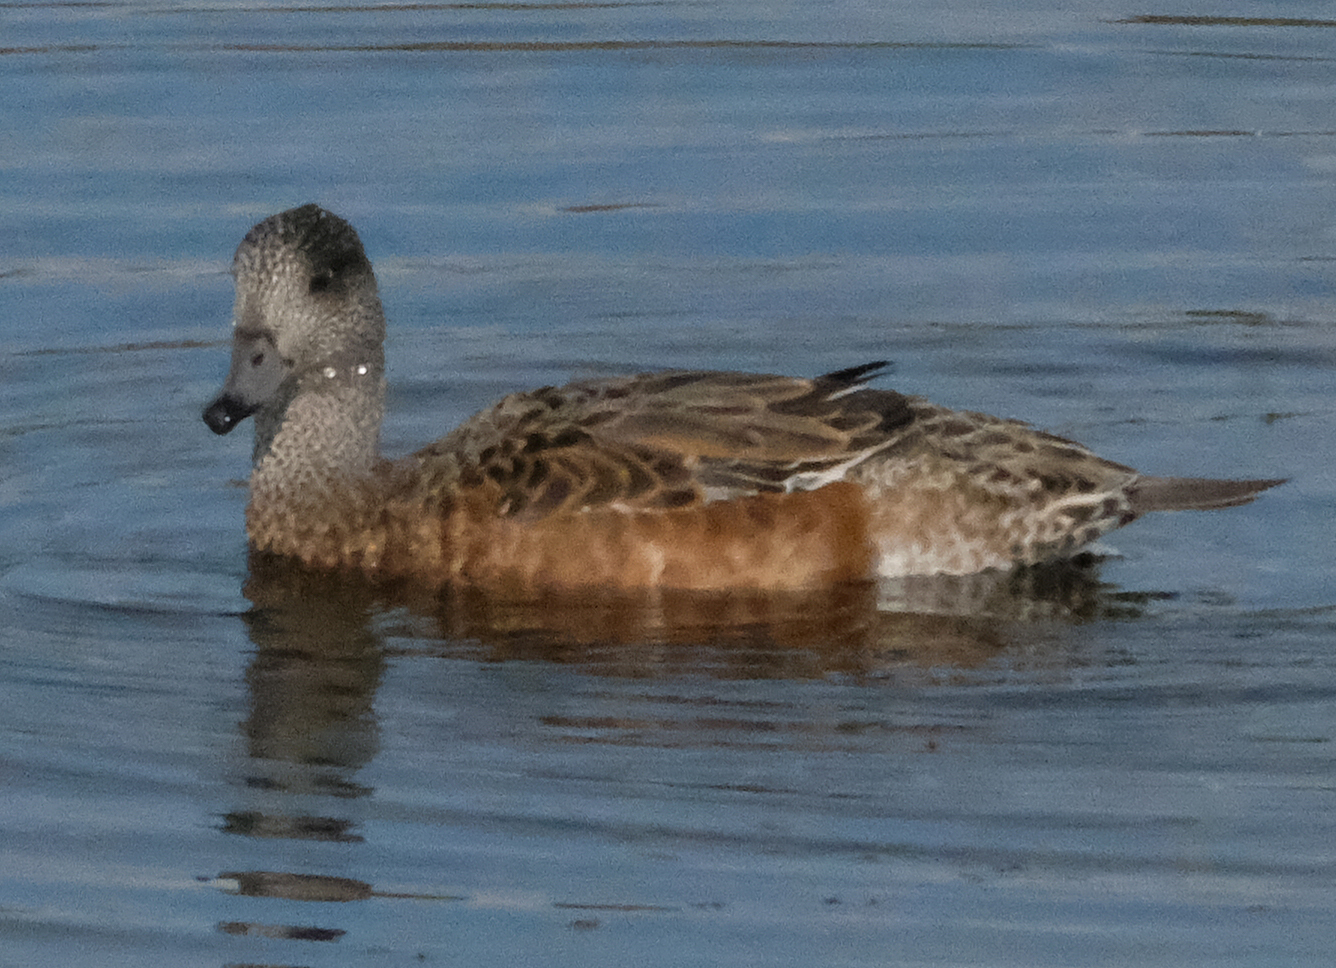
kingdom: Animalia
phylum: Chordata
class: Aves
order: Anseriformes
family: Anatidae
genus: Mareca
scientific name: Mareca americana
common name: American wigeon
